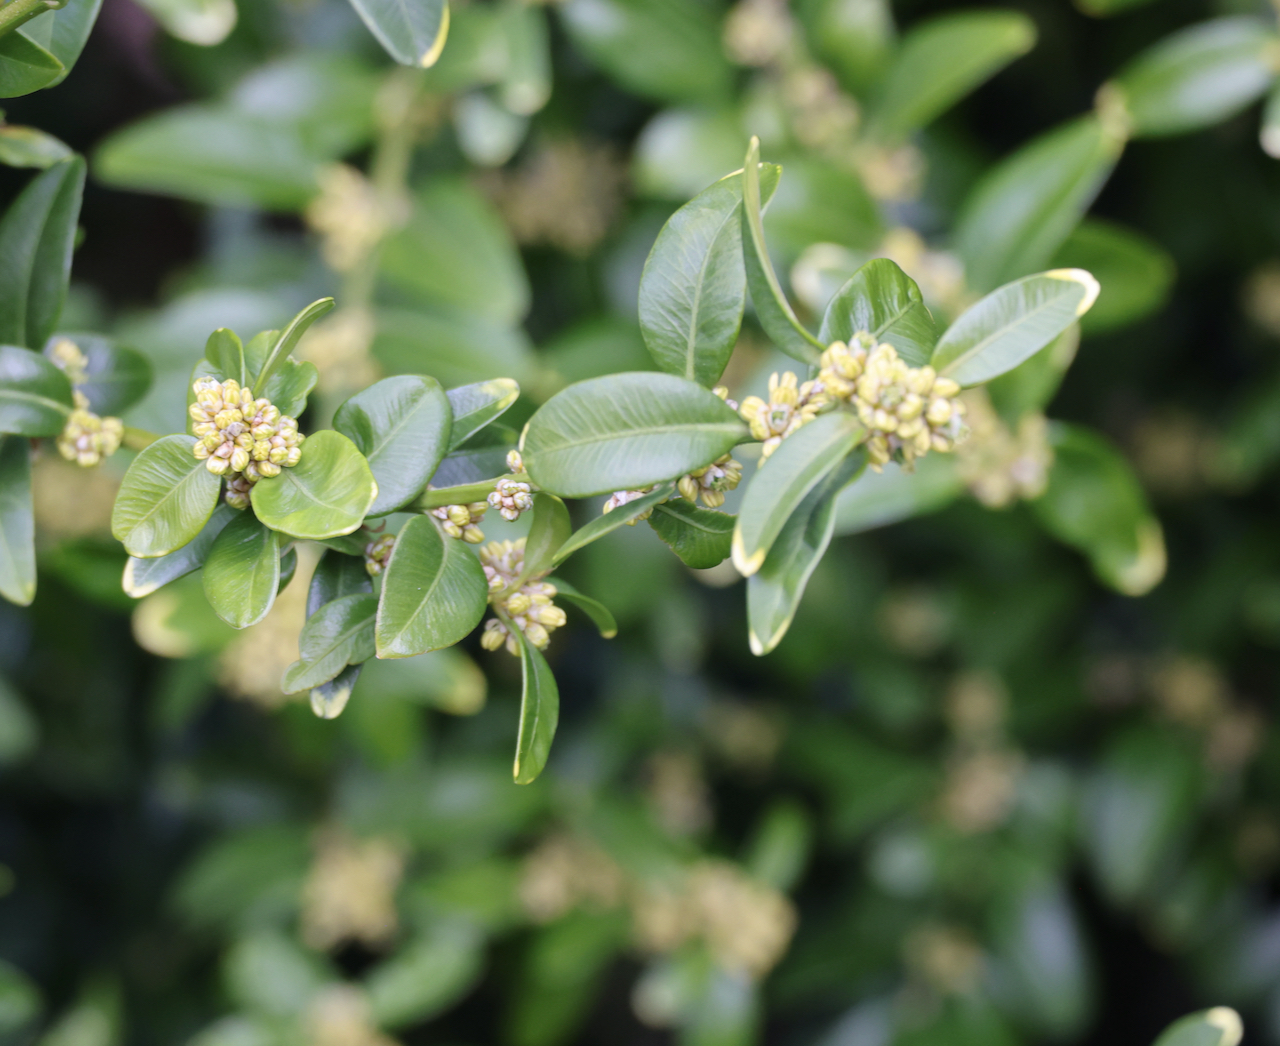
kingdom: Plantae
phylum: Tracheophyta
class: Magnoliopsida
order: Buxales
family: Buxaceae
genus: Buxus
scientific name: Buxus sempervirens
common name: Box
